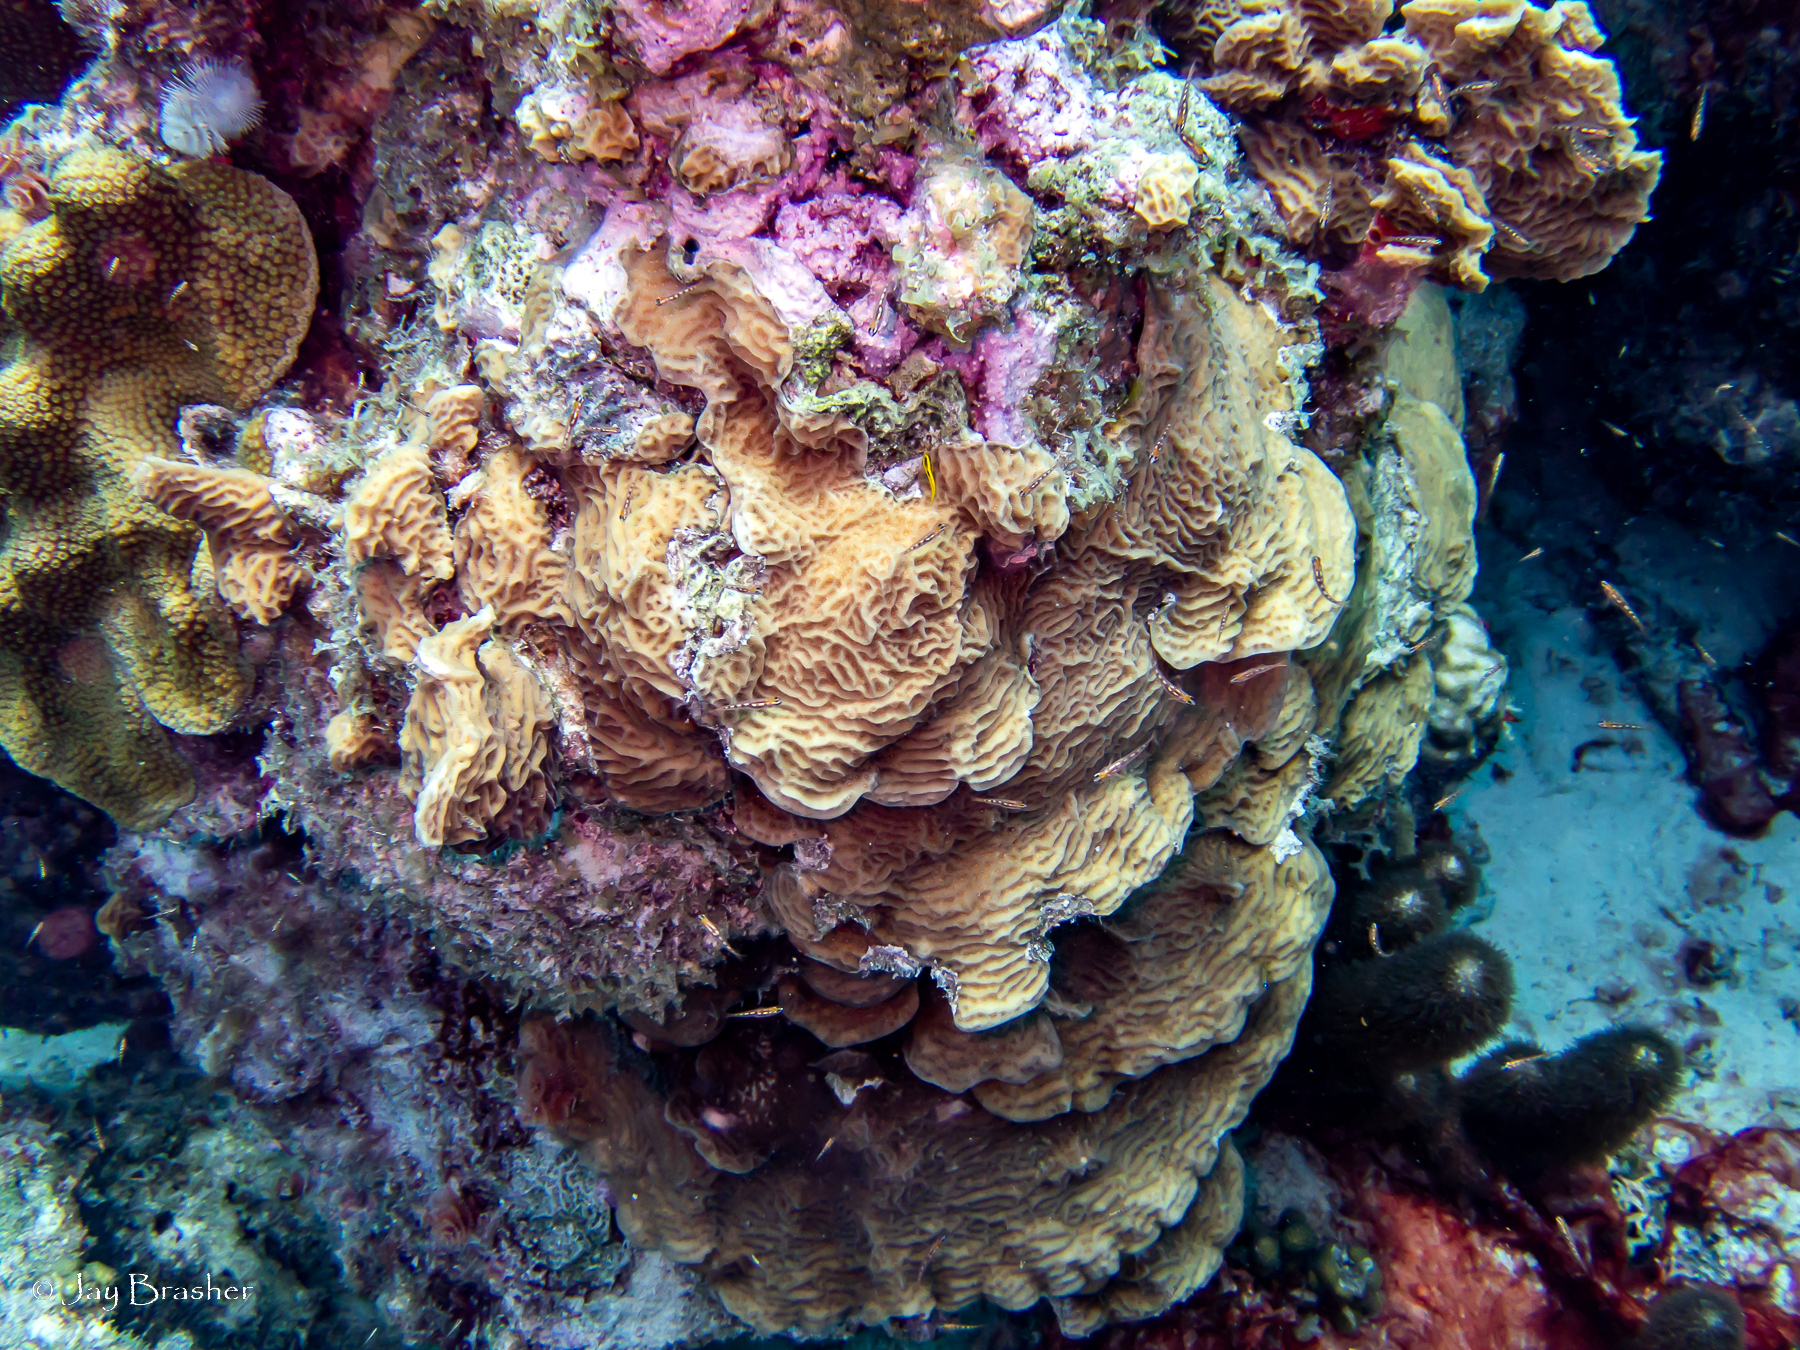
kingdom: Animalia
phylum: Cnidaria
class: Anthozoa
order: Scleractinia
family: Agariciidae
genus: Agaricia
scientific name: Agaricia agaricites
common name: Lettuce coral
